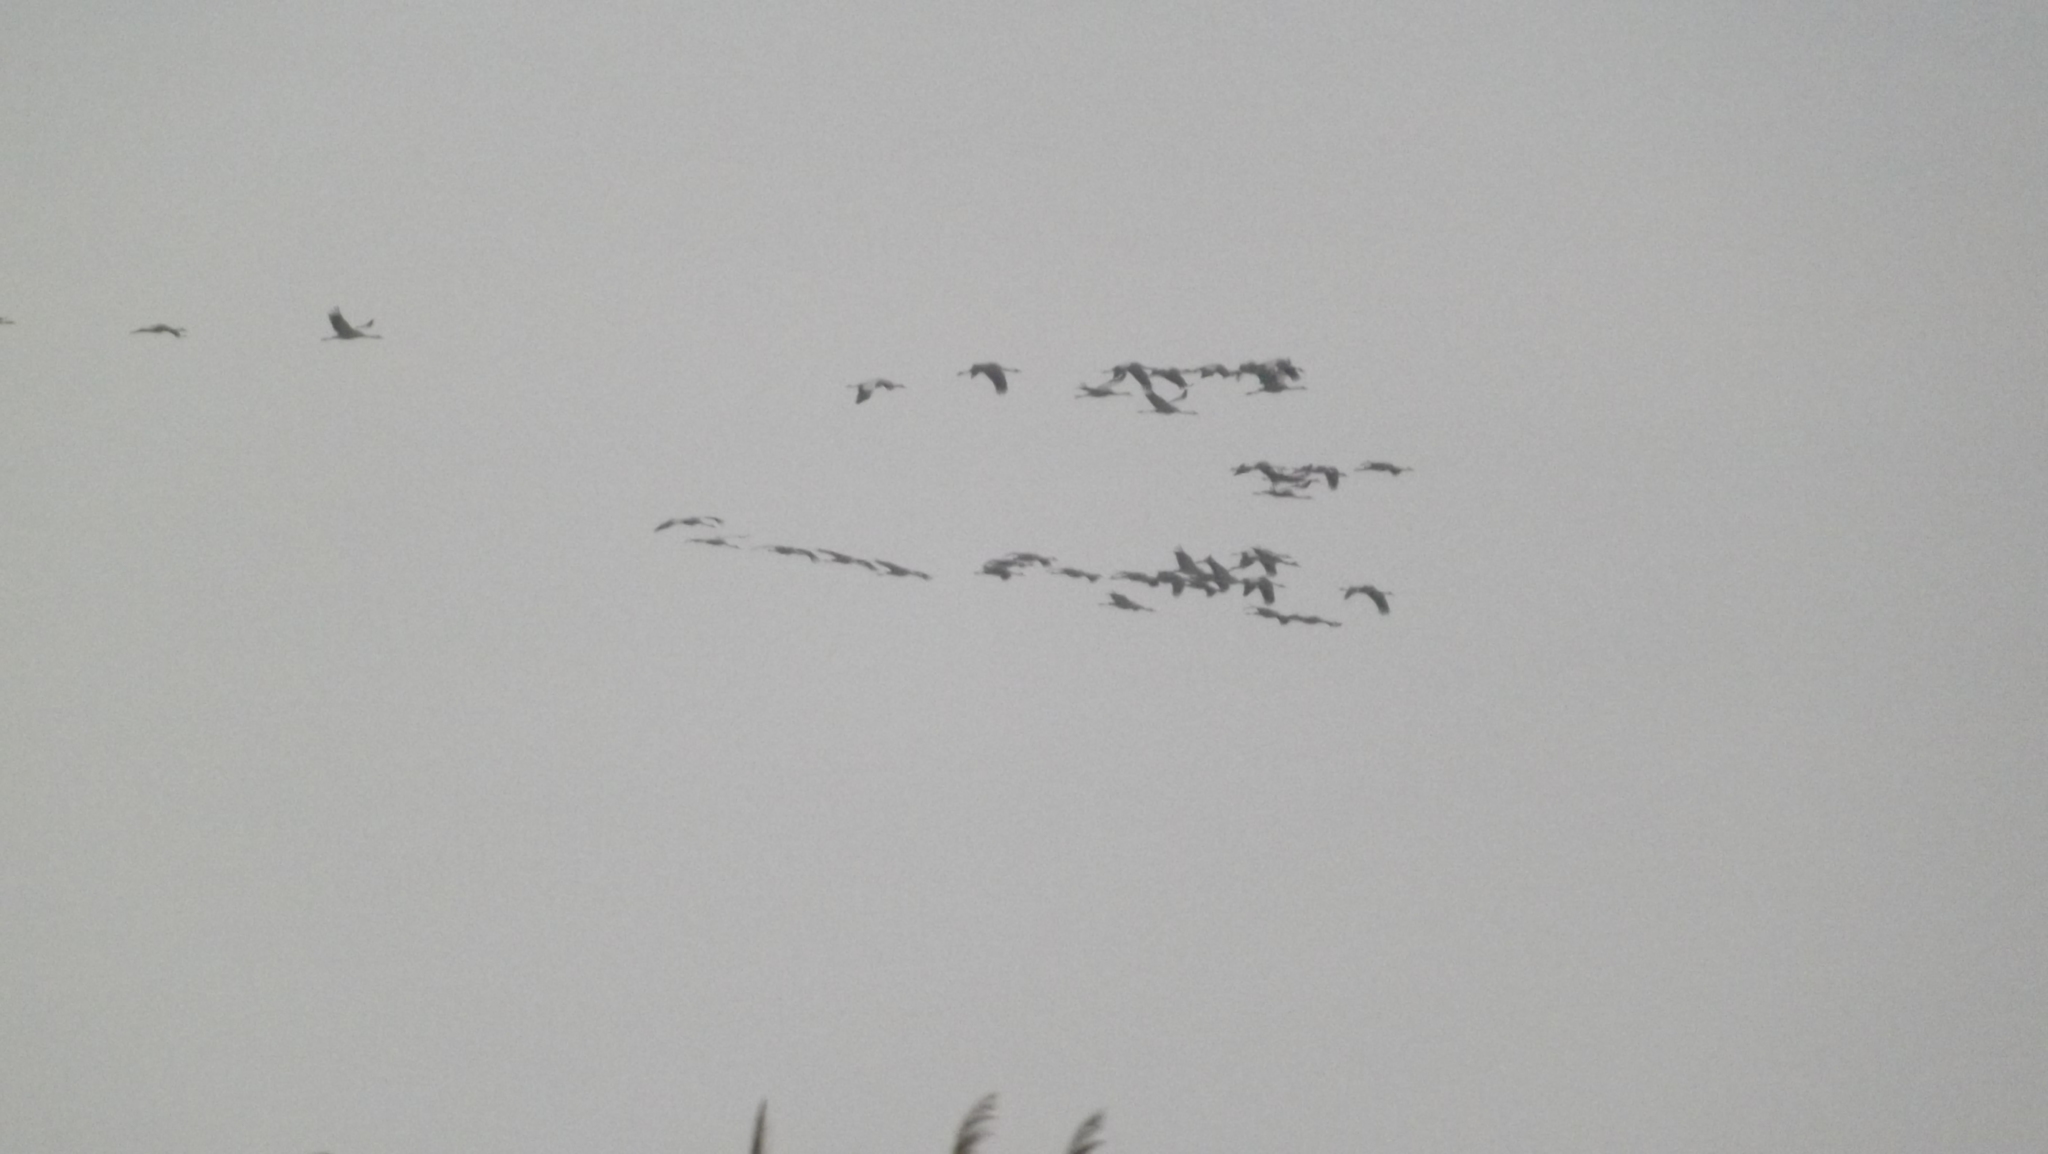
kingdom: Animalia
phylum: Chordata
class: Aves
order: Gruiformes
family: Gruidae
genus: Grus
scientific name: Grus grus
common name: Common crane
